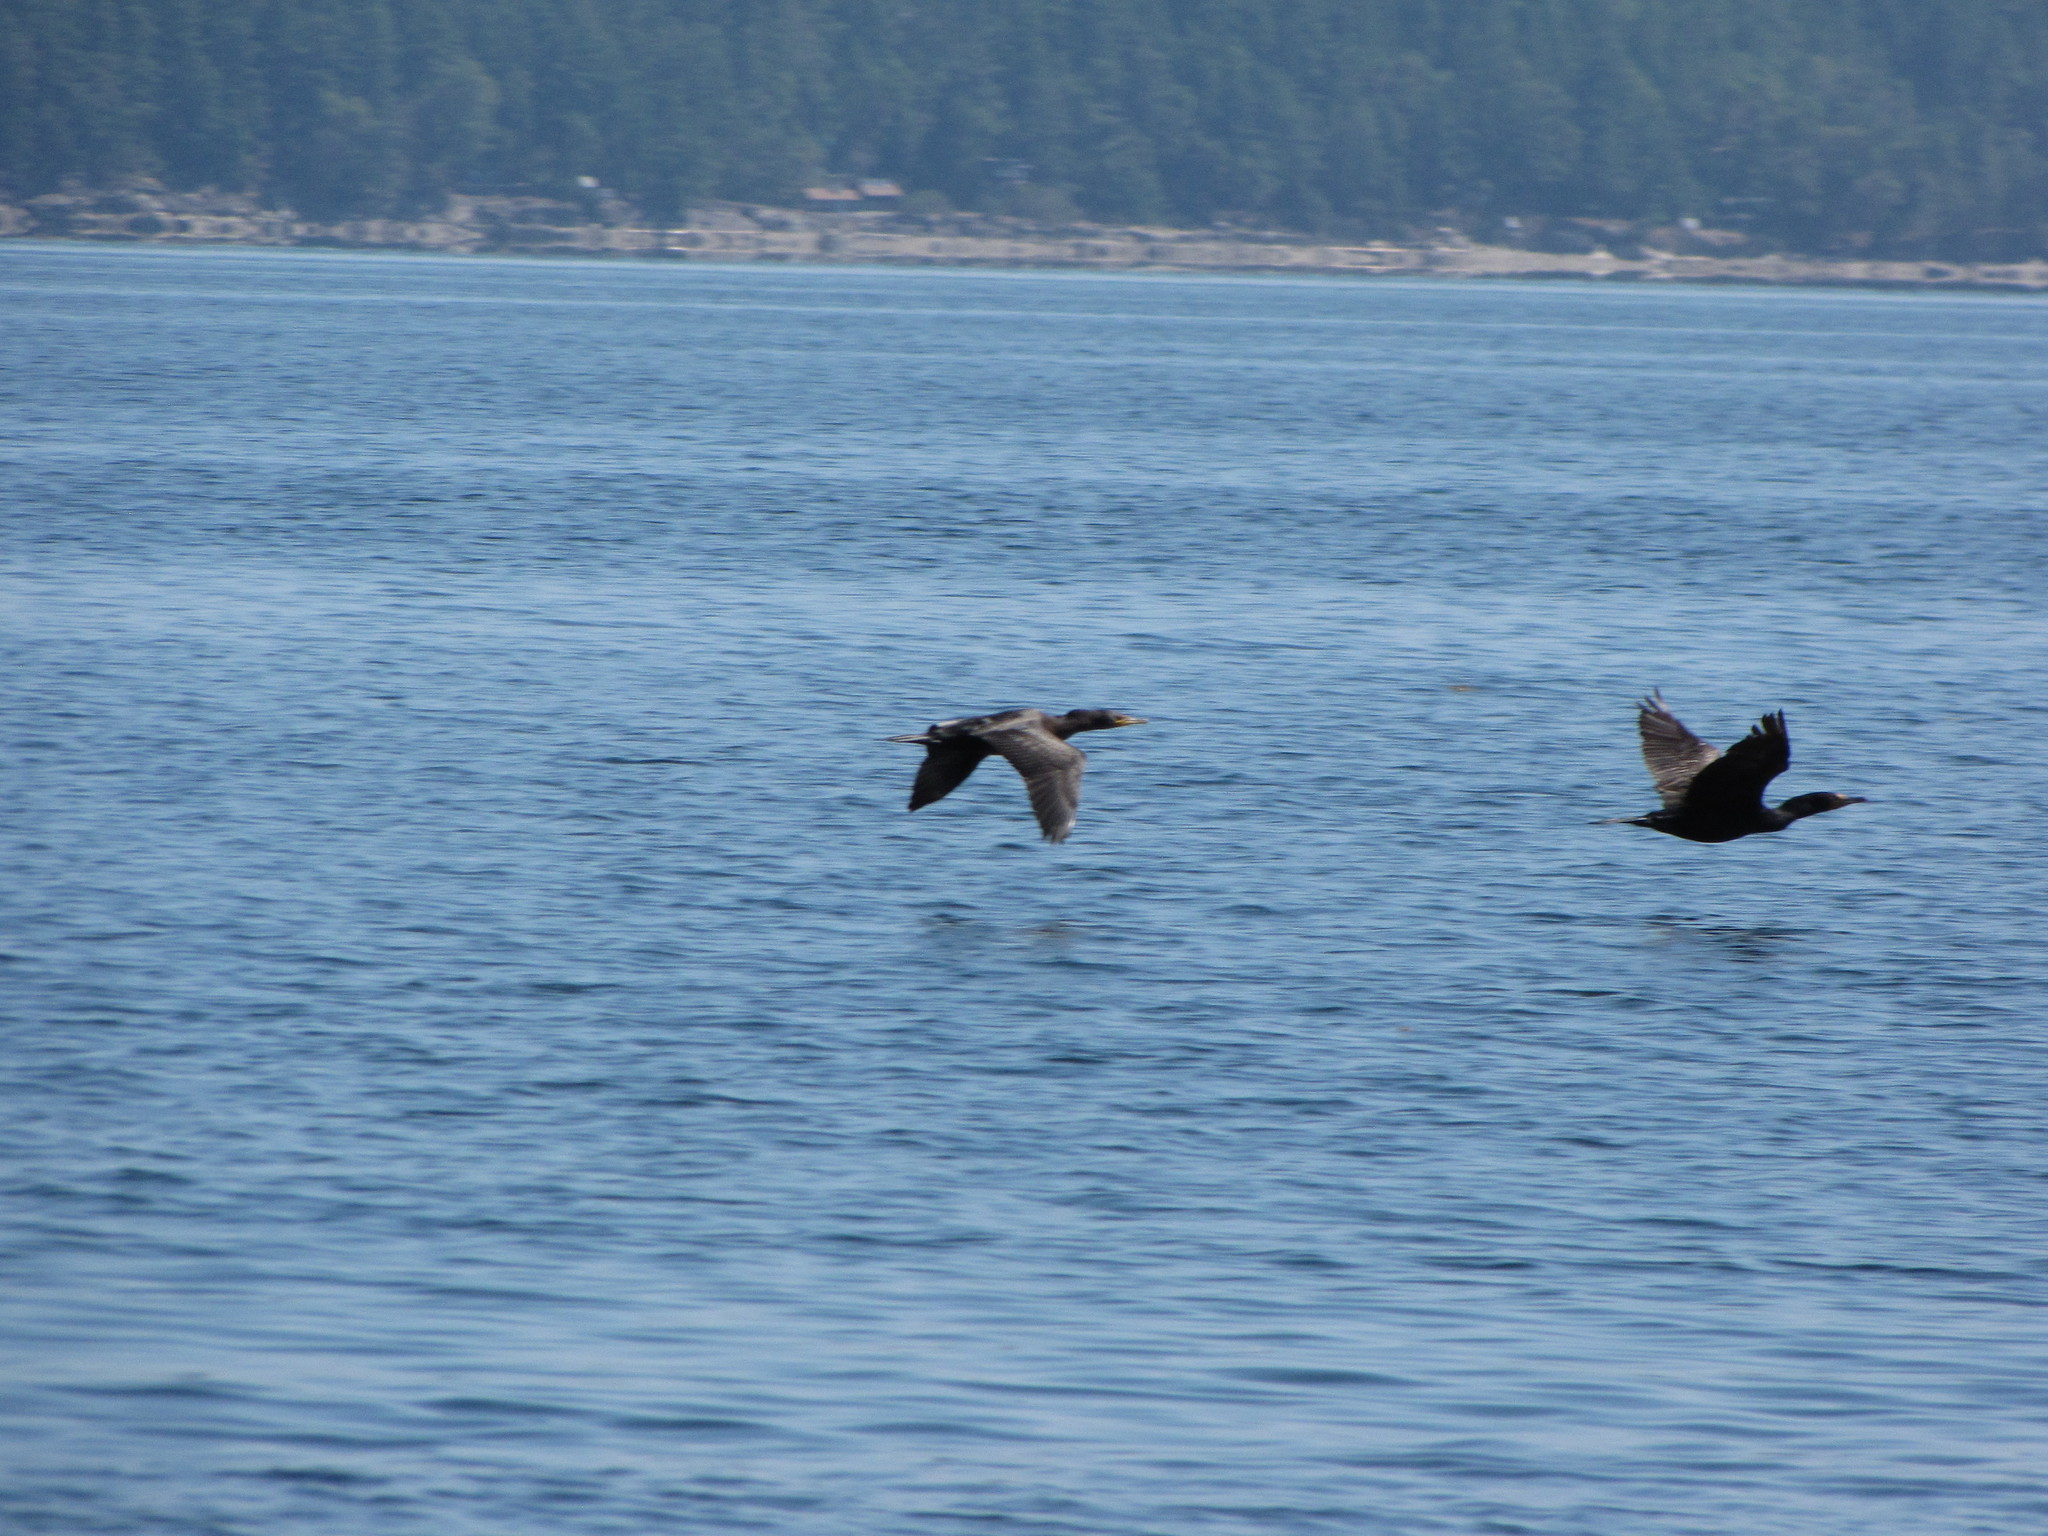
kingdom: Animalia
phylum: Chordata
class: Aves
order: Suliformes
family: Phalacrocoracidae
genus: Phalacrocorax
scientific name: Phalacrocorax auritus
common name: Double-crested cormorant
